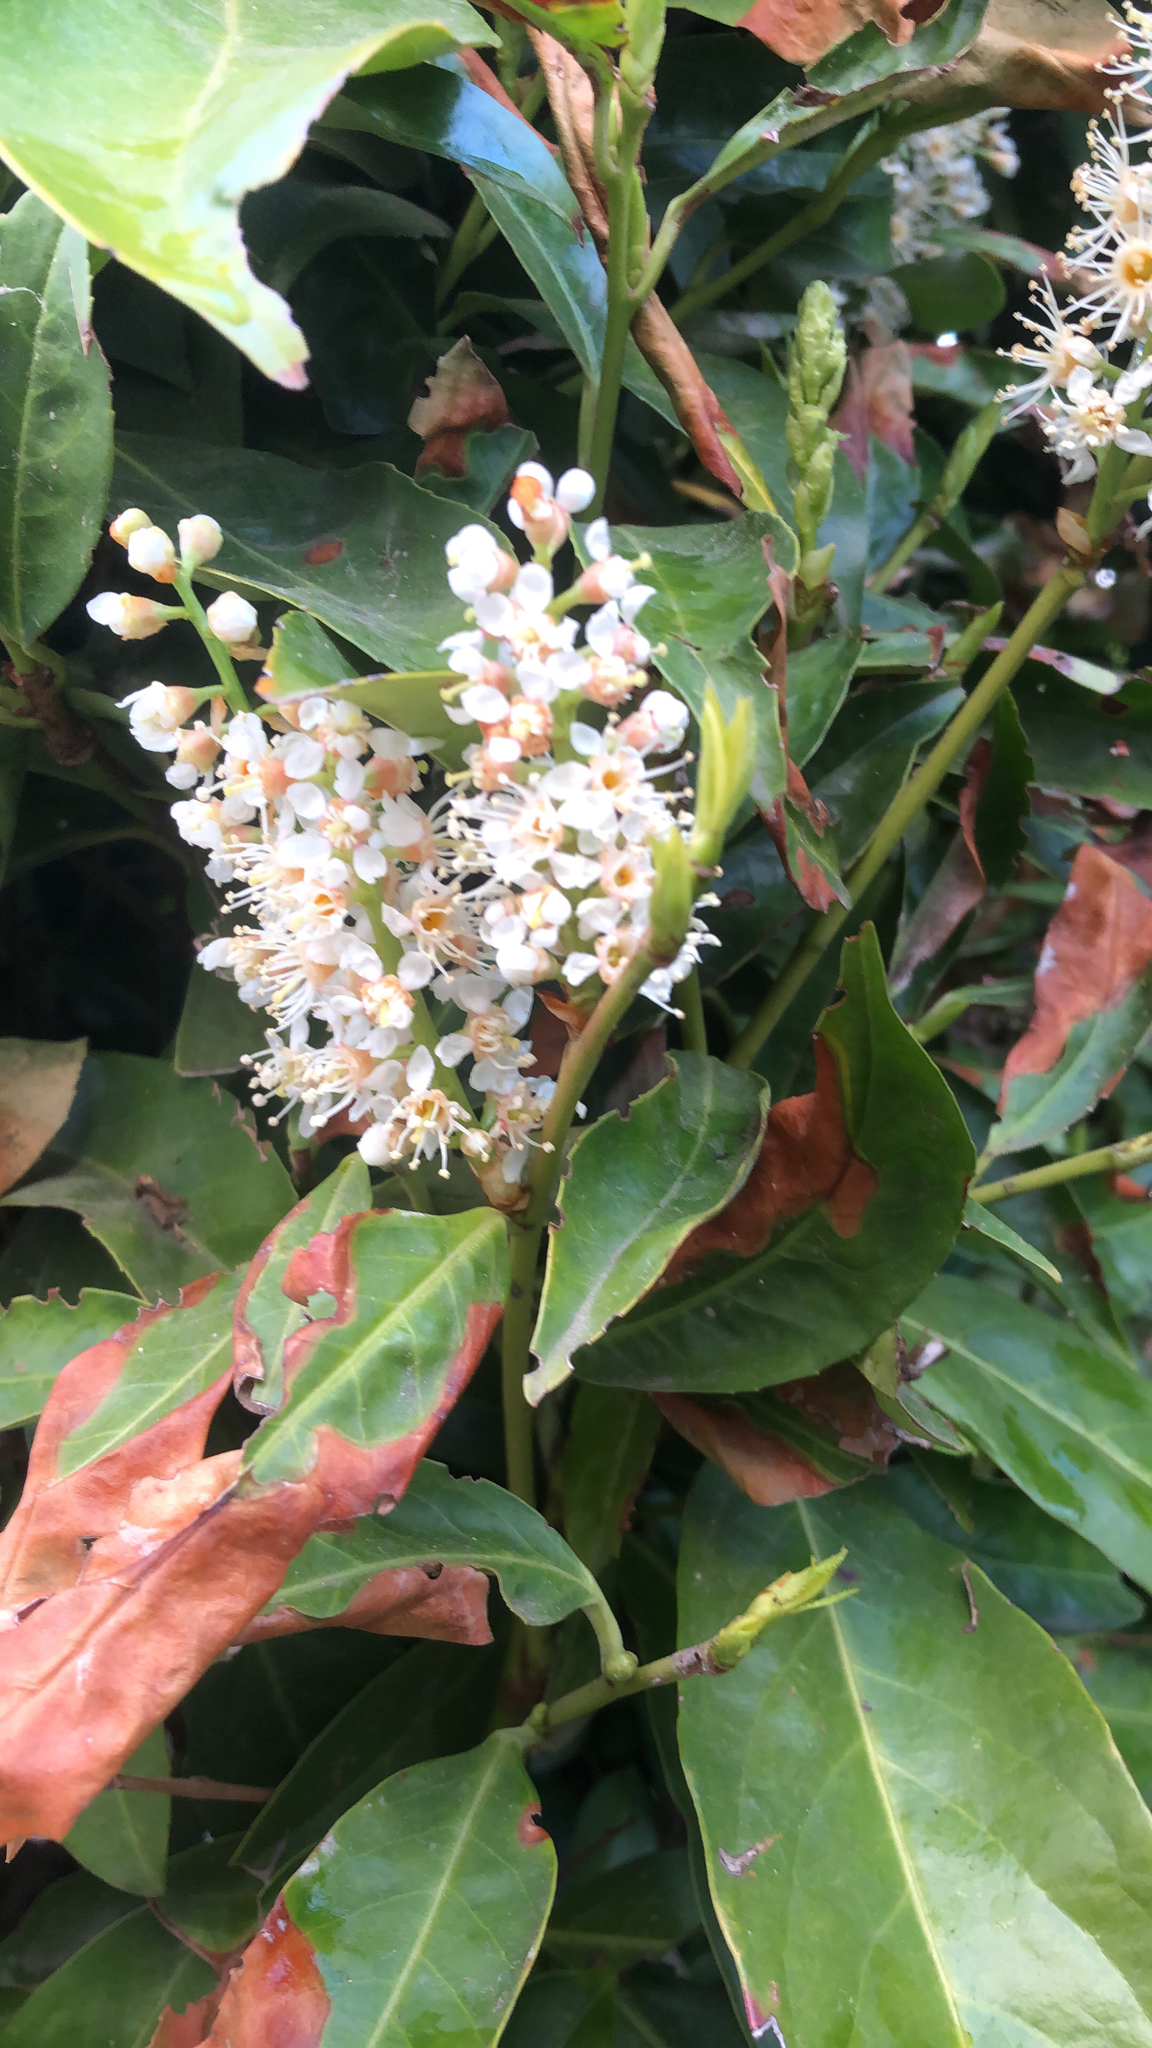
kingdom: Plantae
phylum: Tracheophyta
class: Magnoliopsida
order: Rosales
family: Rosaceae
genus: Prunus
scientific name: Prunus laurocerasus
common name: Cherry laurel
